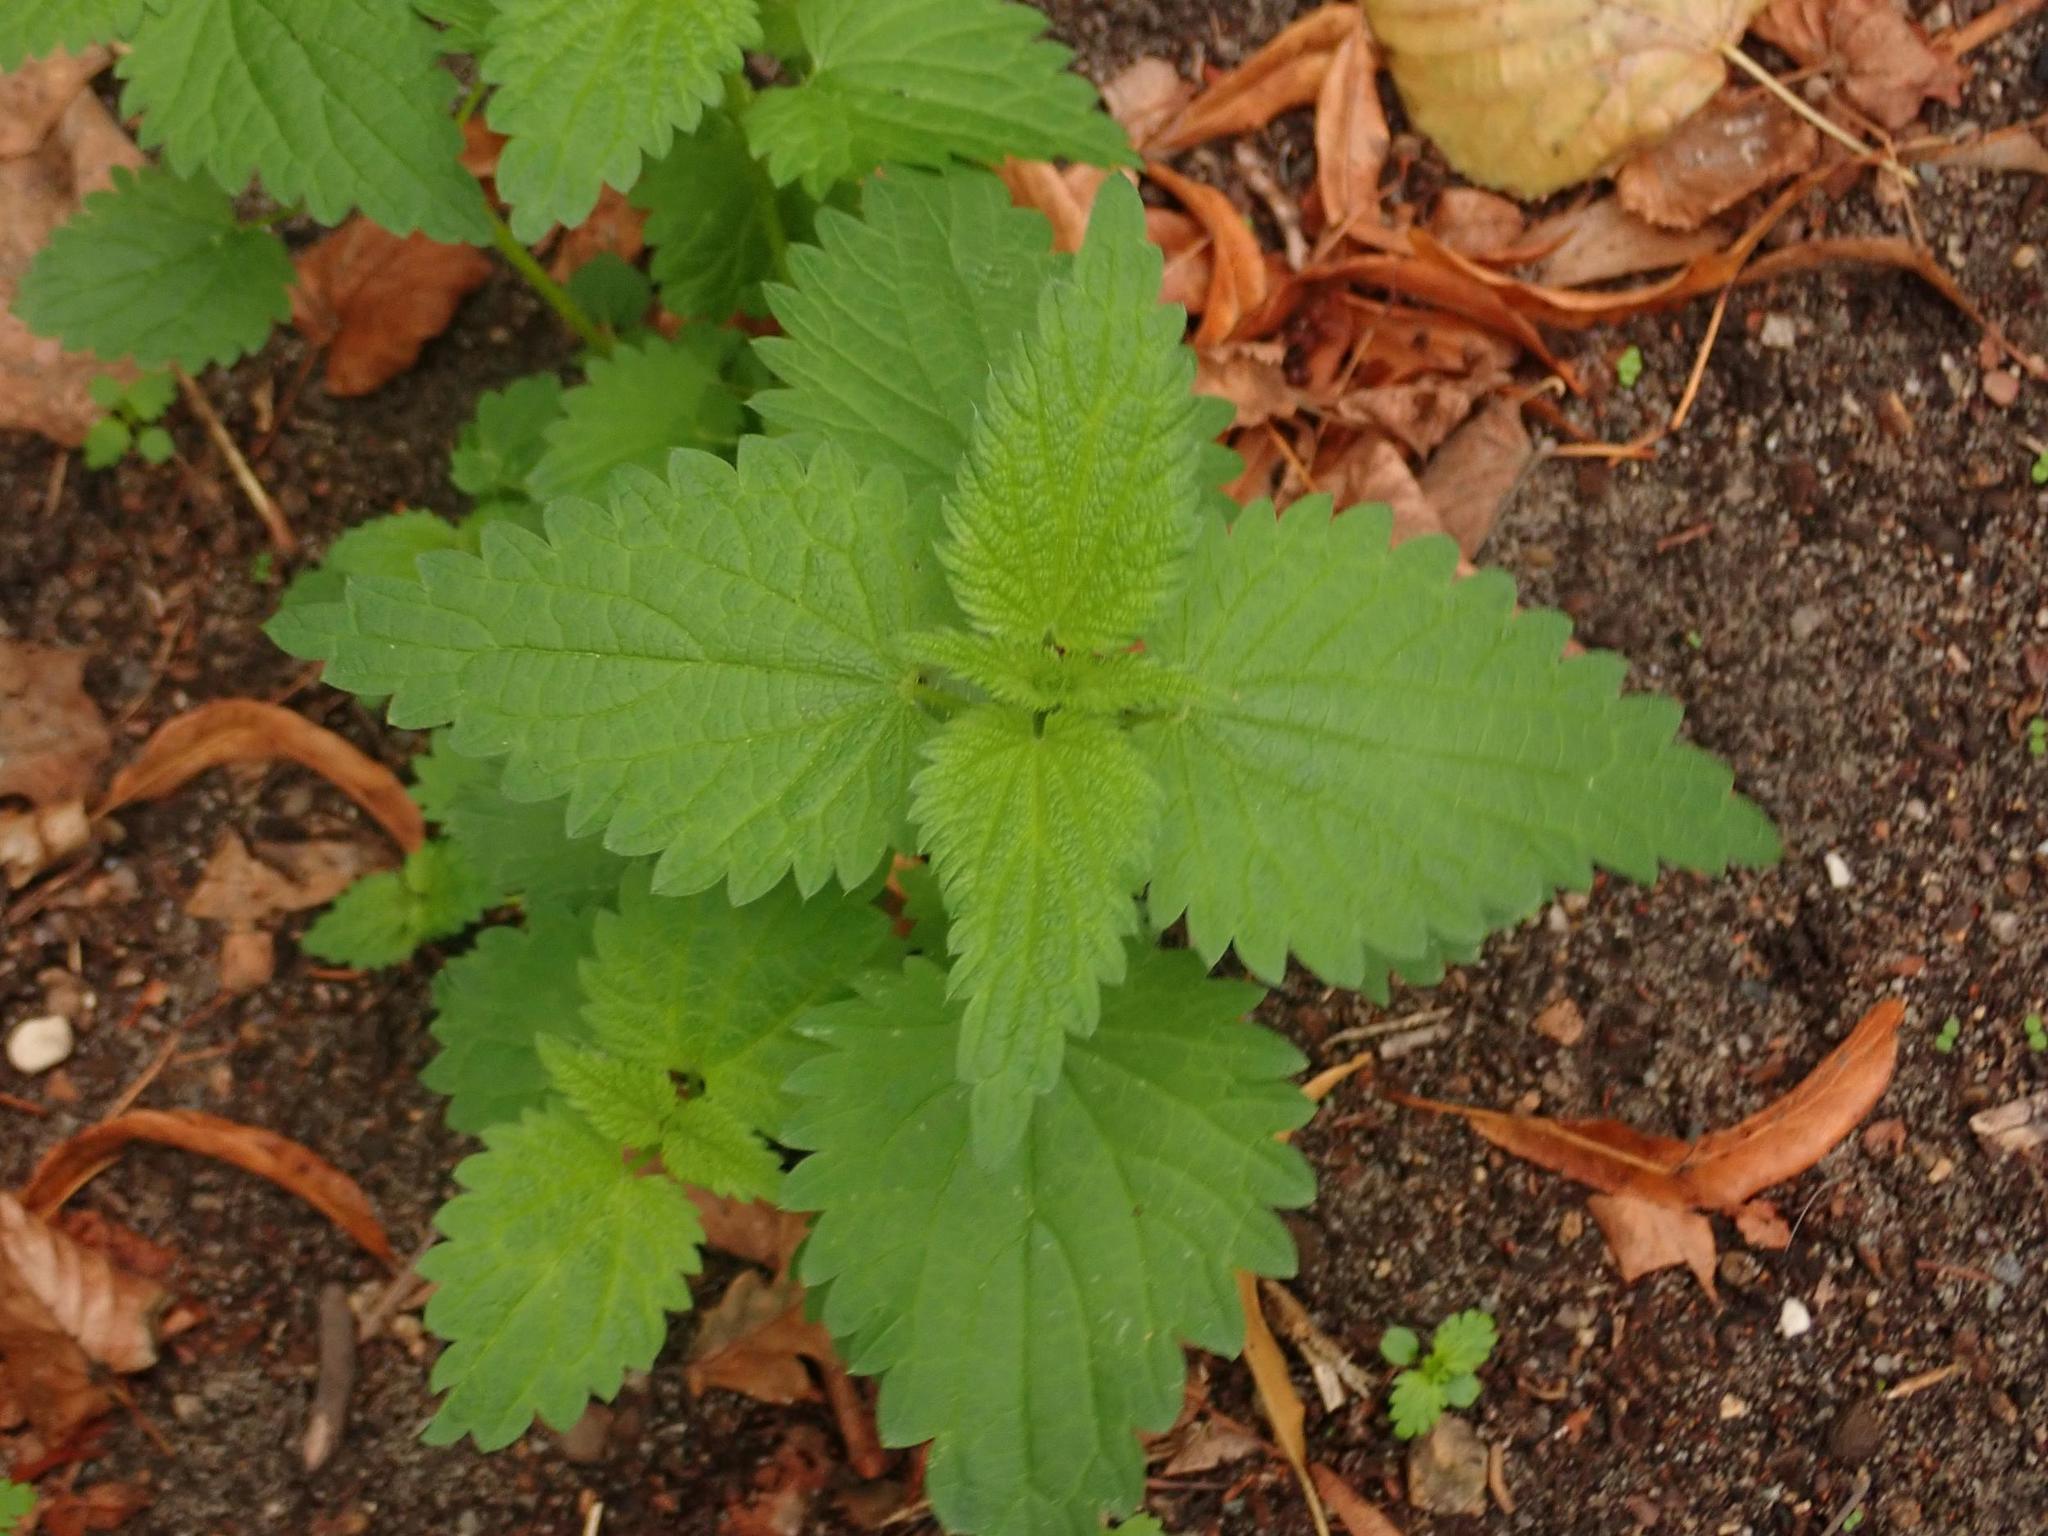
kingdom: Plantae
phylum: Tracheophyta
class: Magnoliopsida
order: Rosales
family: Urticaceae
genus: Urtica
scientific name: Urtica dioica
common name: Common nettle
